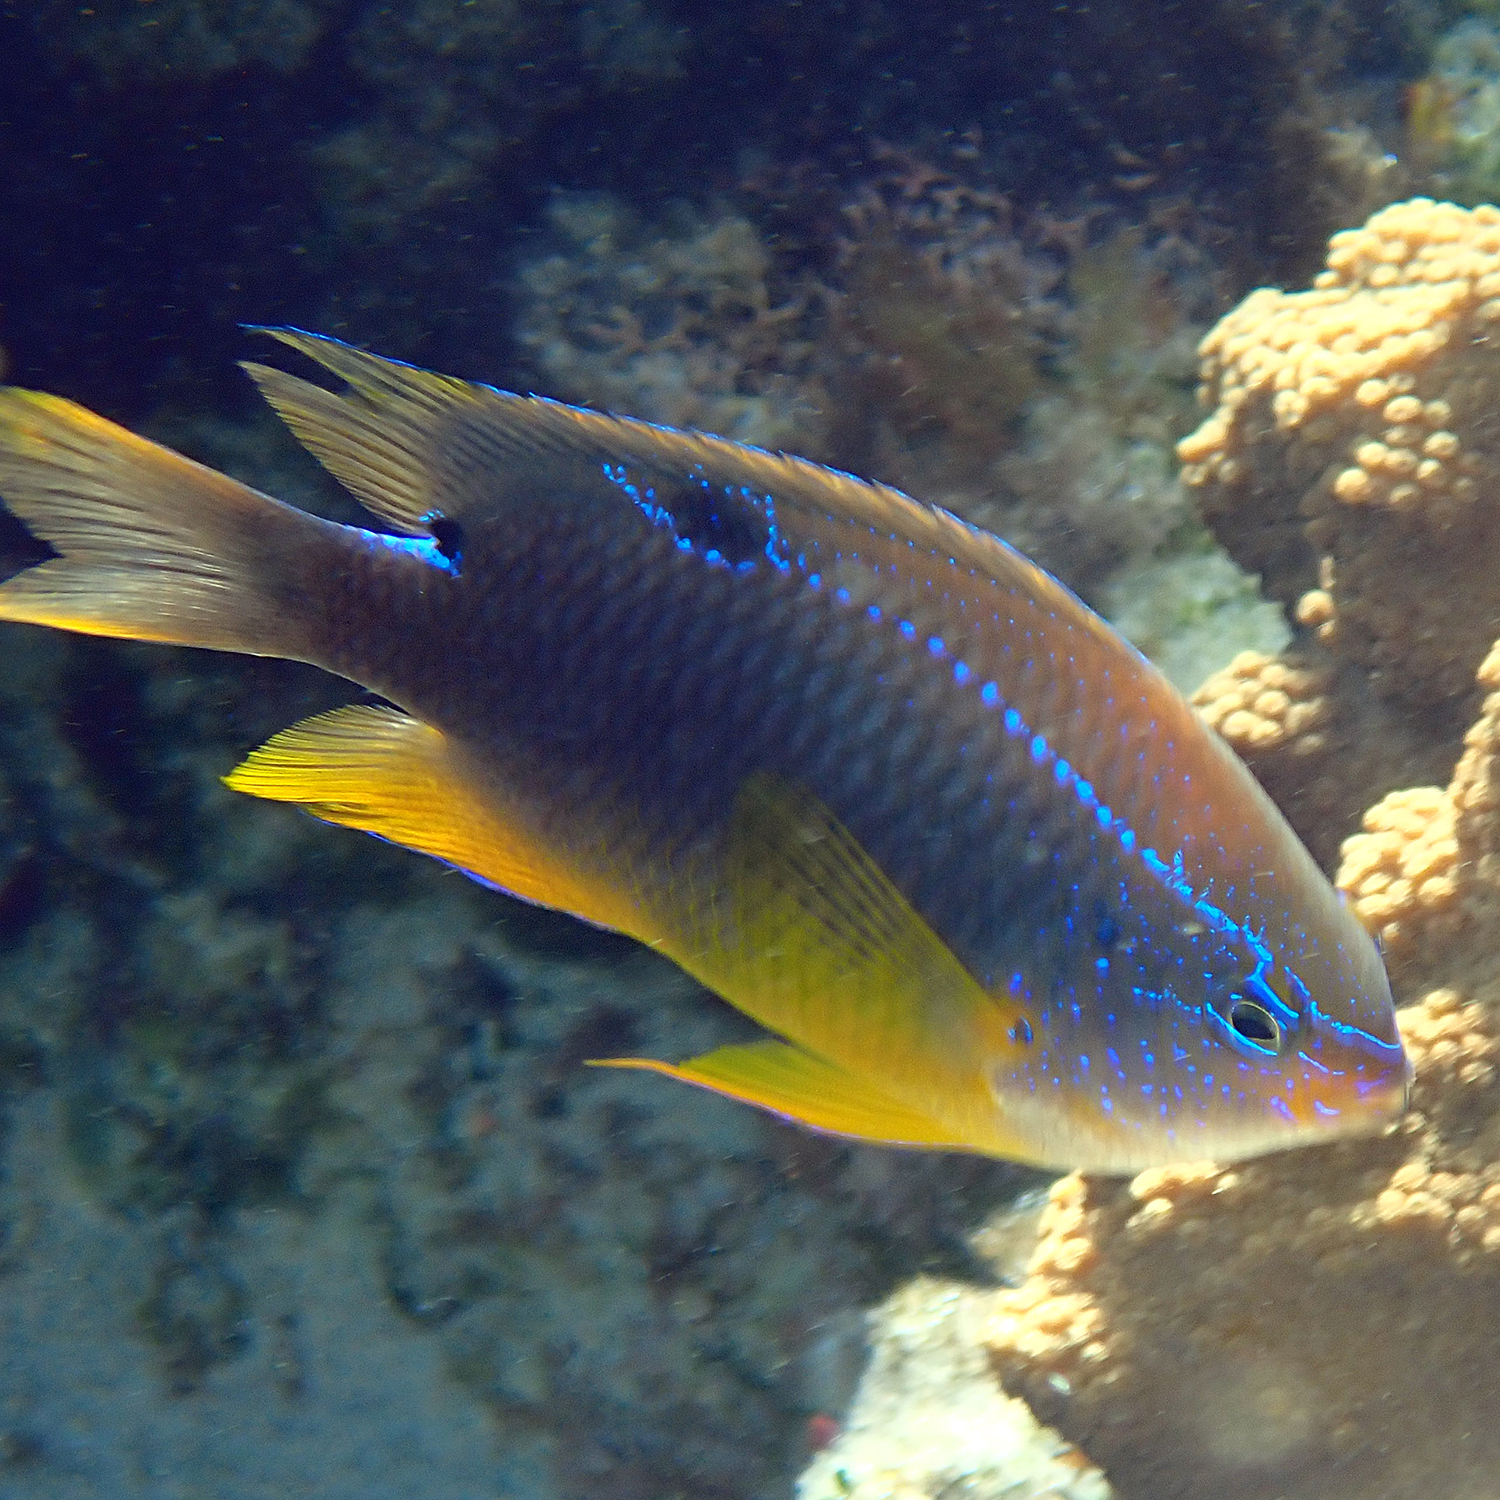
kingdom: Animalia
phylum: Chordata
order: Perciformes
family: Pomacentridae
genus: Neoglyphidodon
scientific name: Neoglyphidodon polyacanthus
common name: Multi-spined damsel
